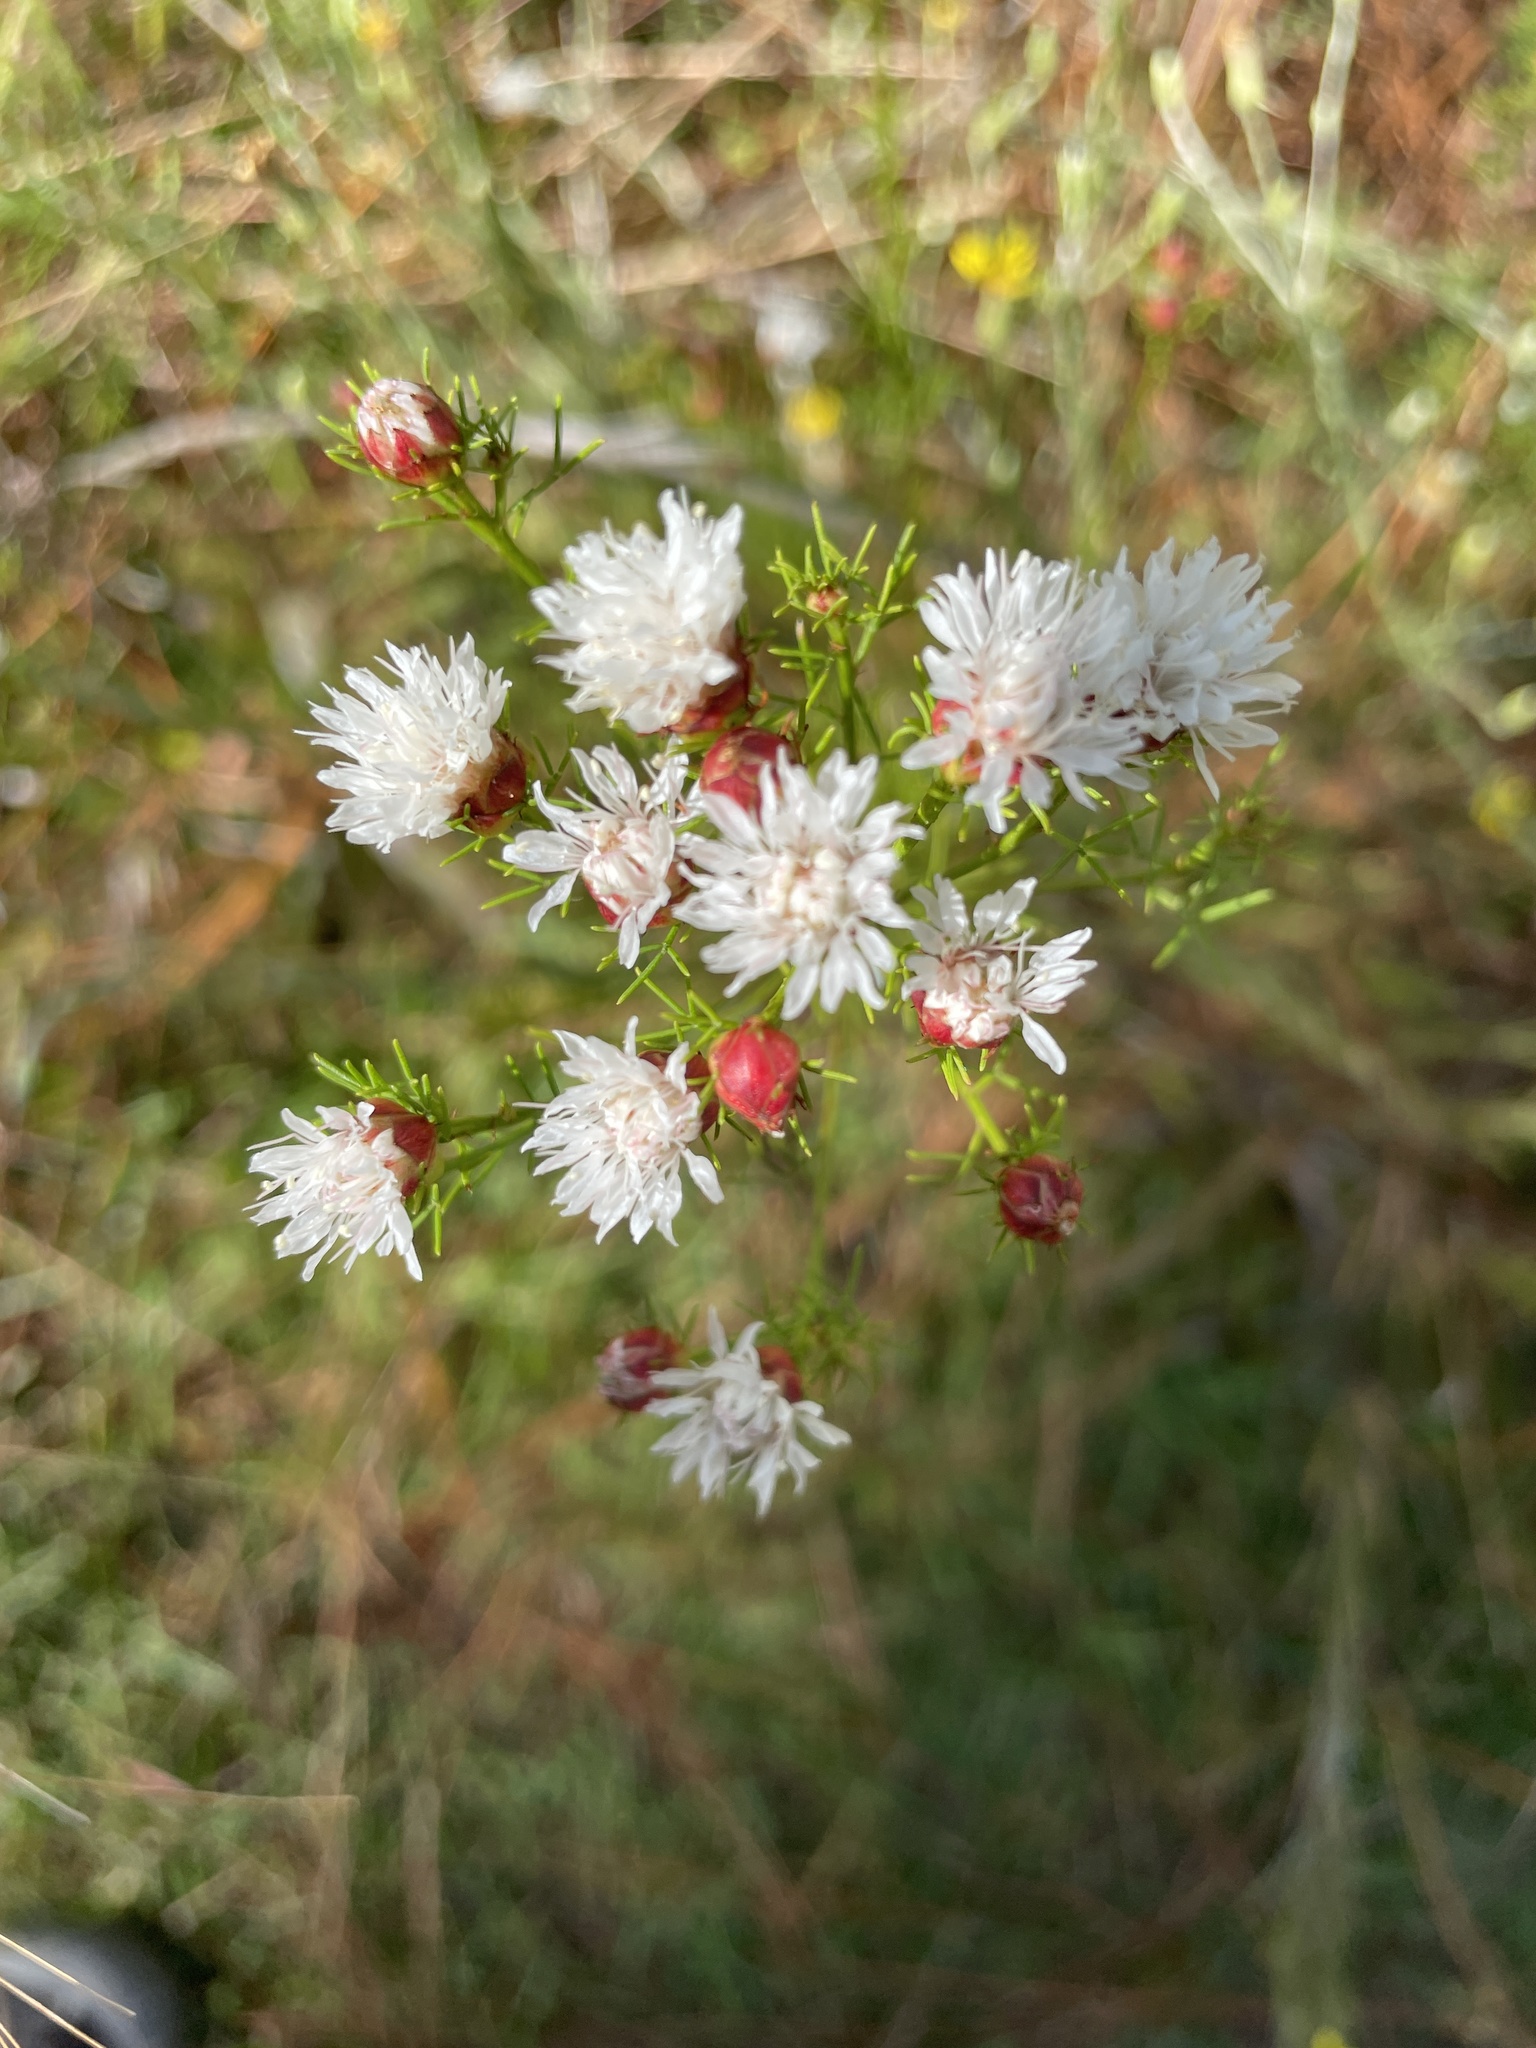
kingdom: Plantae
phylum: Tracheophyta
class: Magnoliopsida
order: Fabales
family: Fabaceae
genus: Dalea
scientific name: Dalea pinnata
